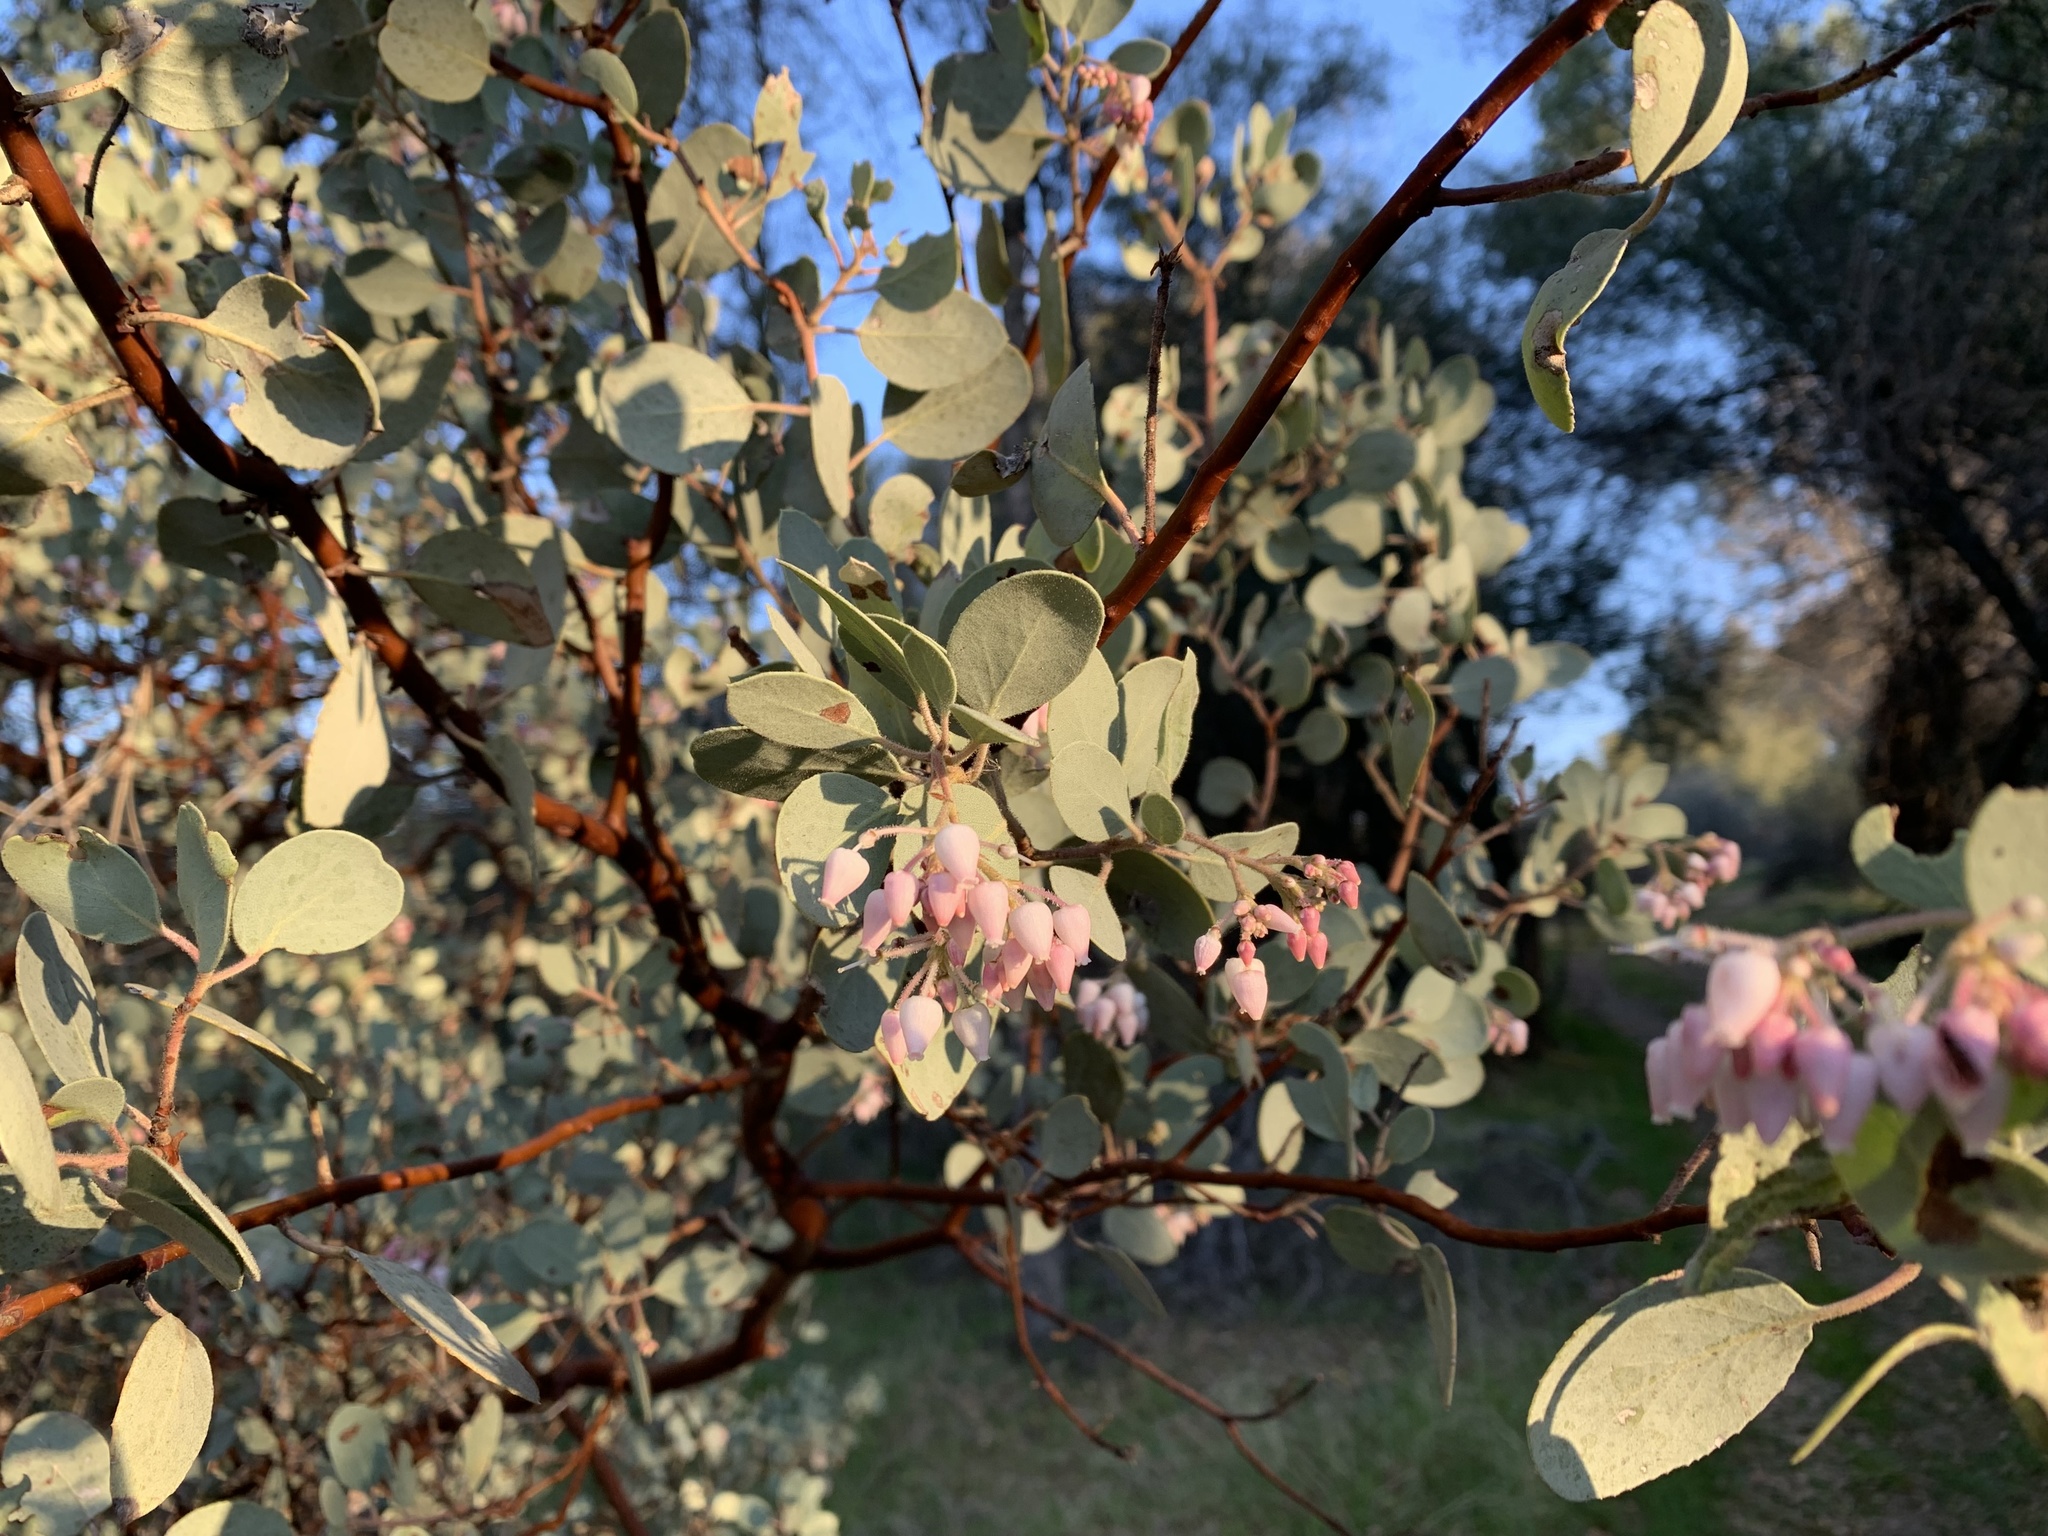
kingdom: Plantae
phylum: Tracheophyta
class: Magnoliopsida
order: Ericales
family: Ericaceae
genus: Arctostaphylos
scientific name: Arctostaphylos viscida
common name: White-leaf manzanita
